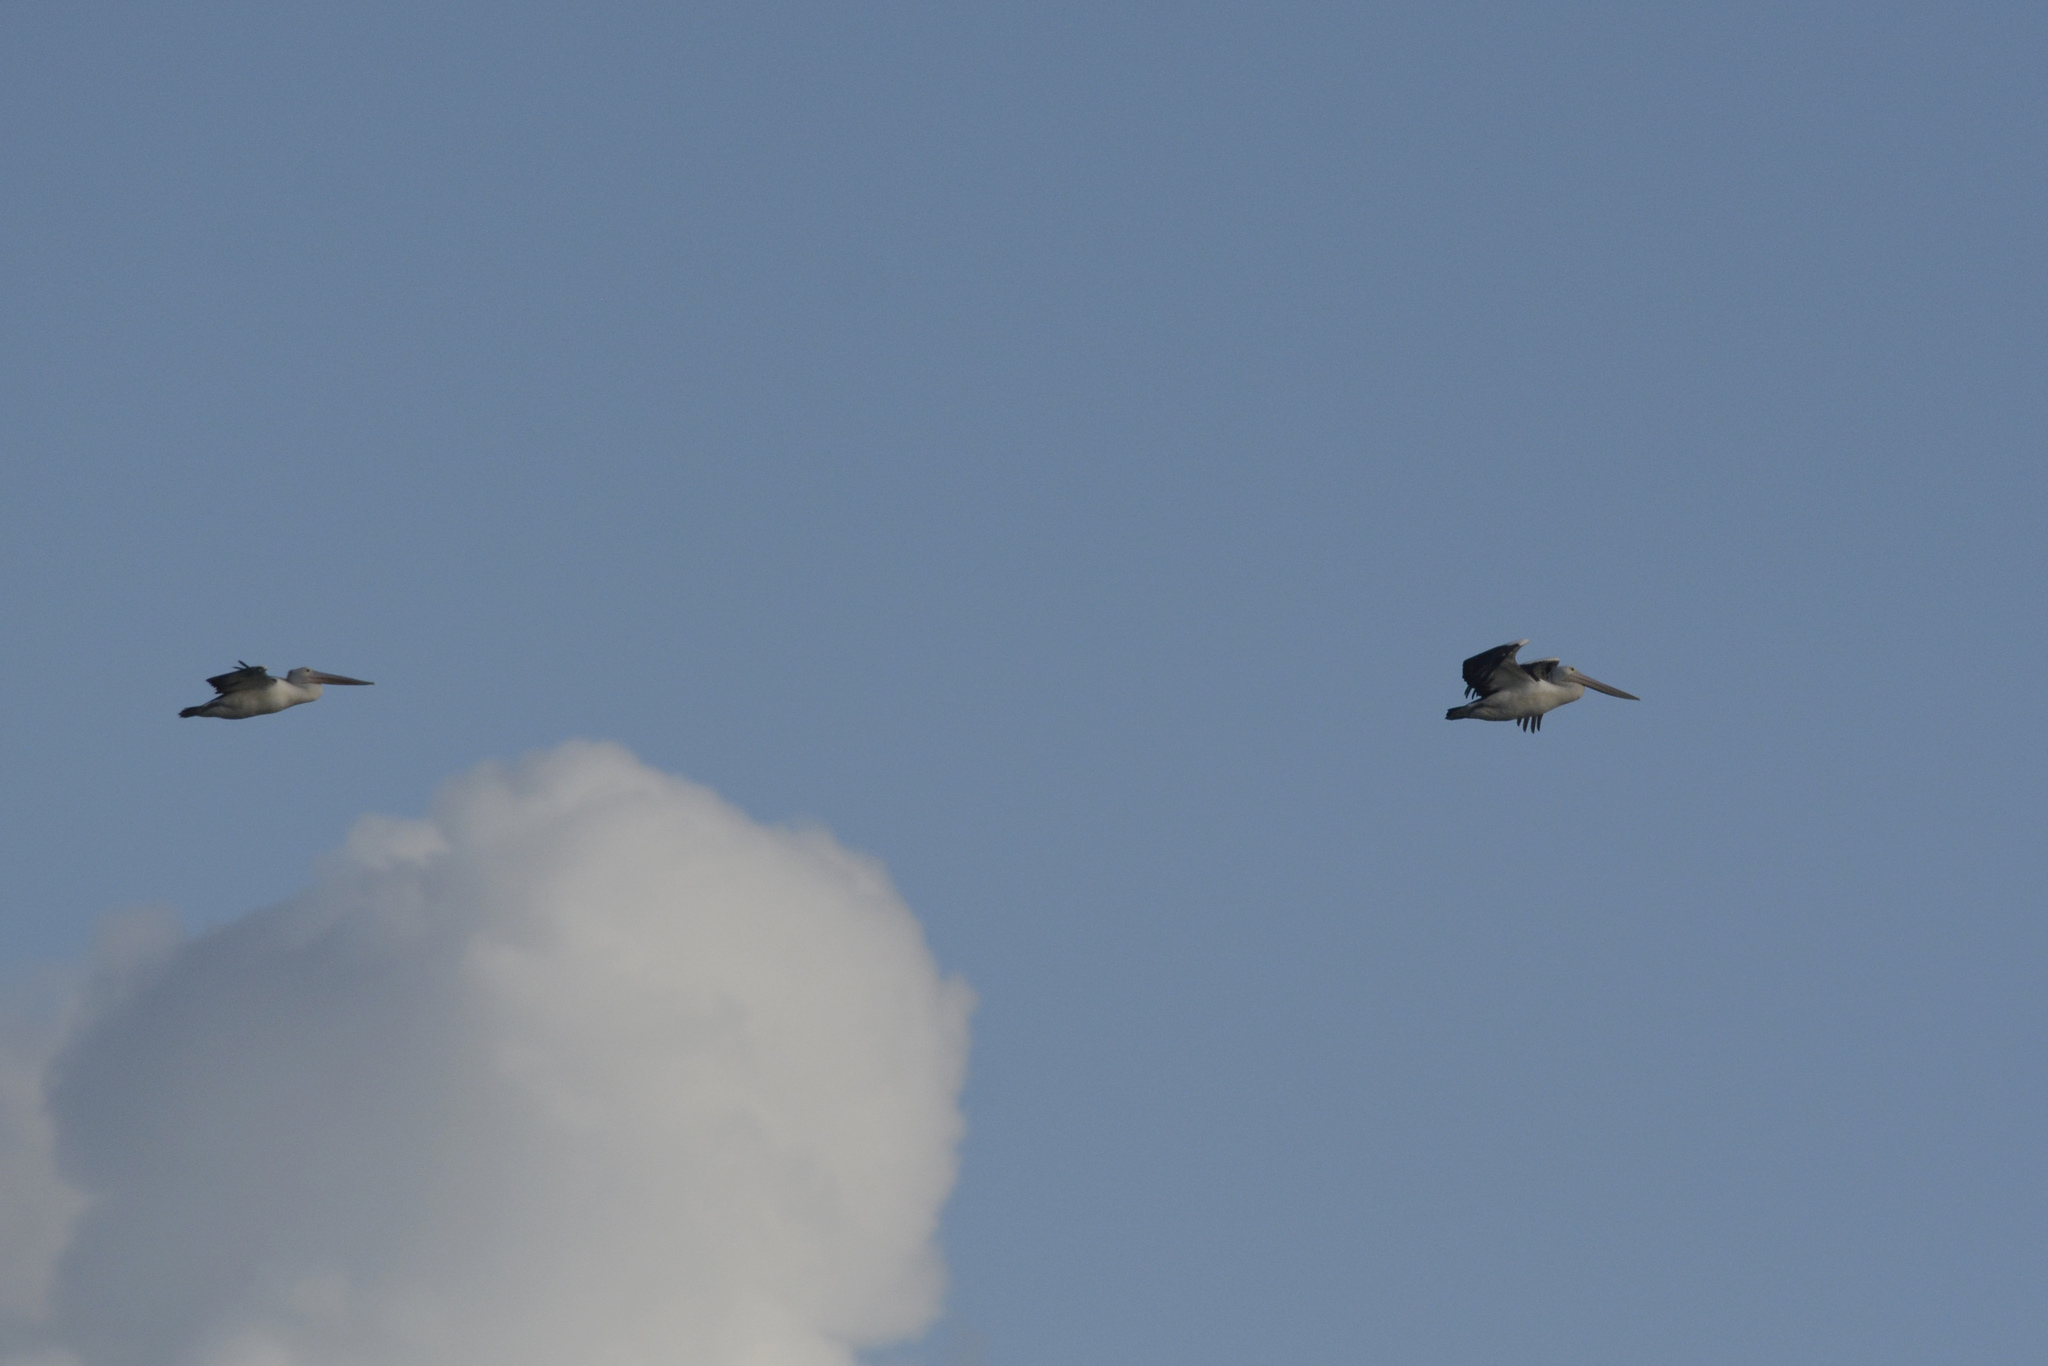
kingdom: Animalia
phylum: Chordata
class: Aves
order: Pelecaniformes
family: Pelecanidae
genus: Pelecanus
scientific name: Pelecanus conspicillatus
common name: Australian pelican
